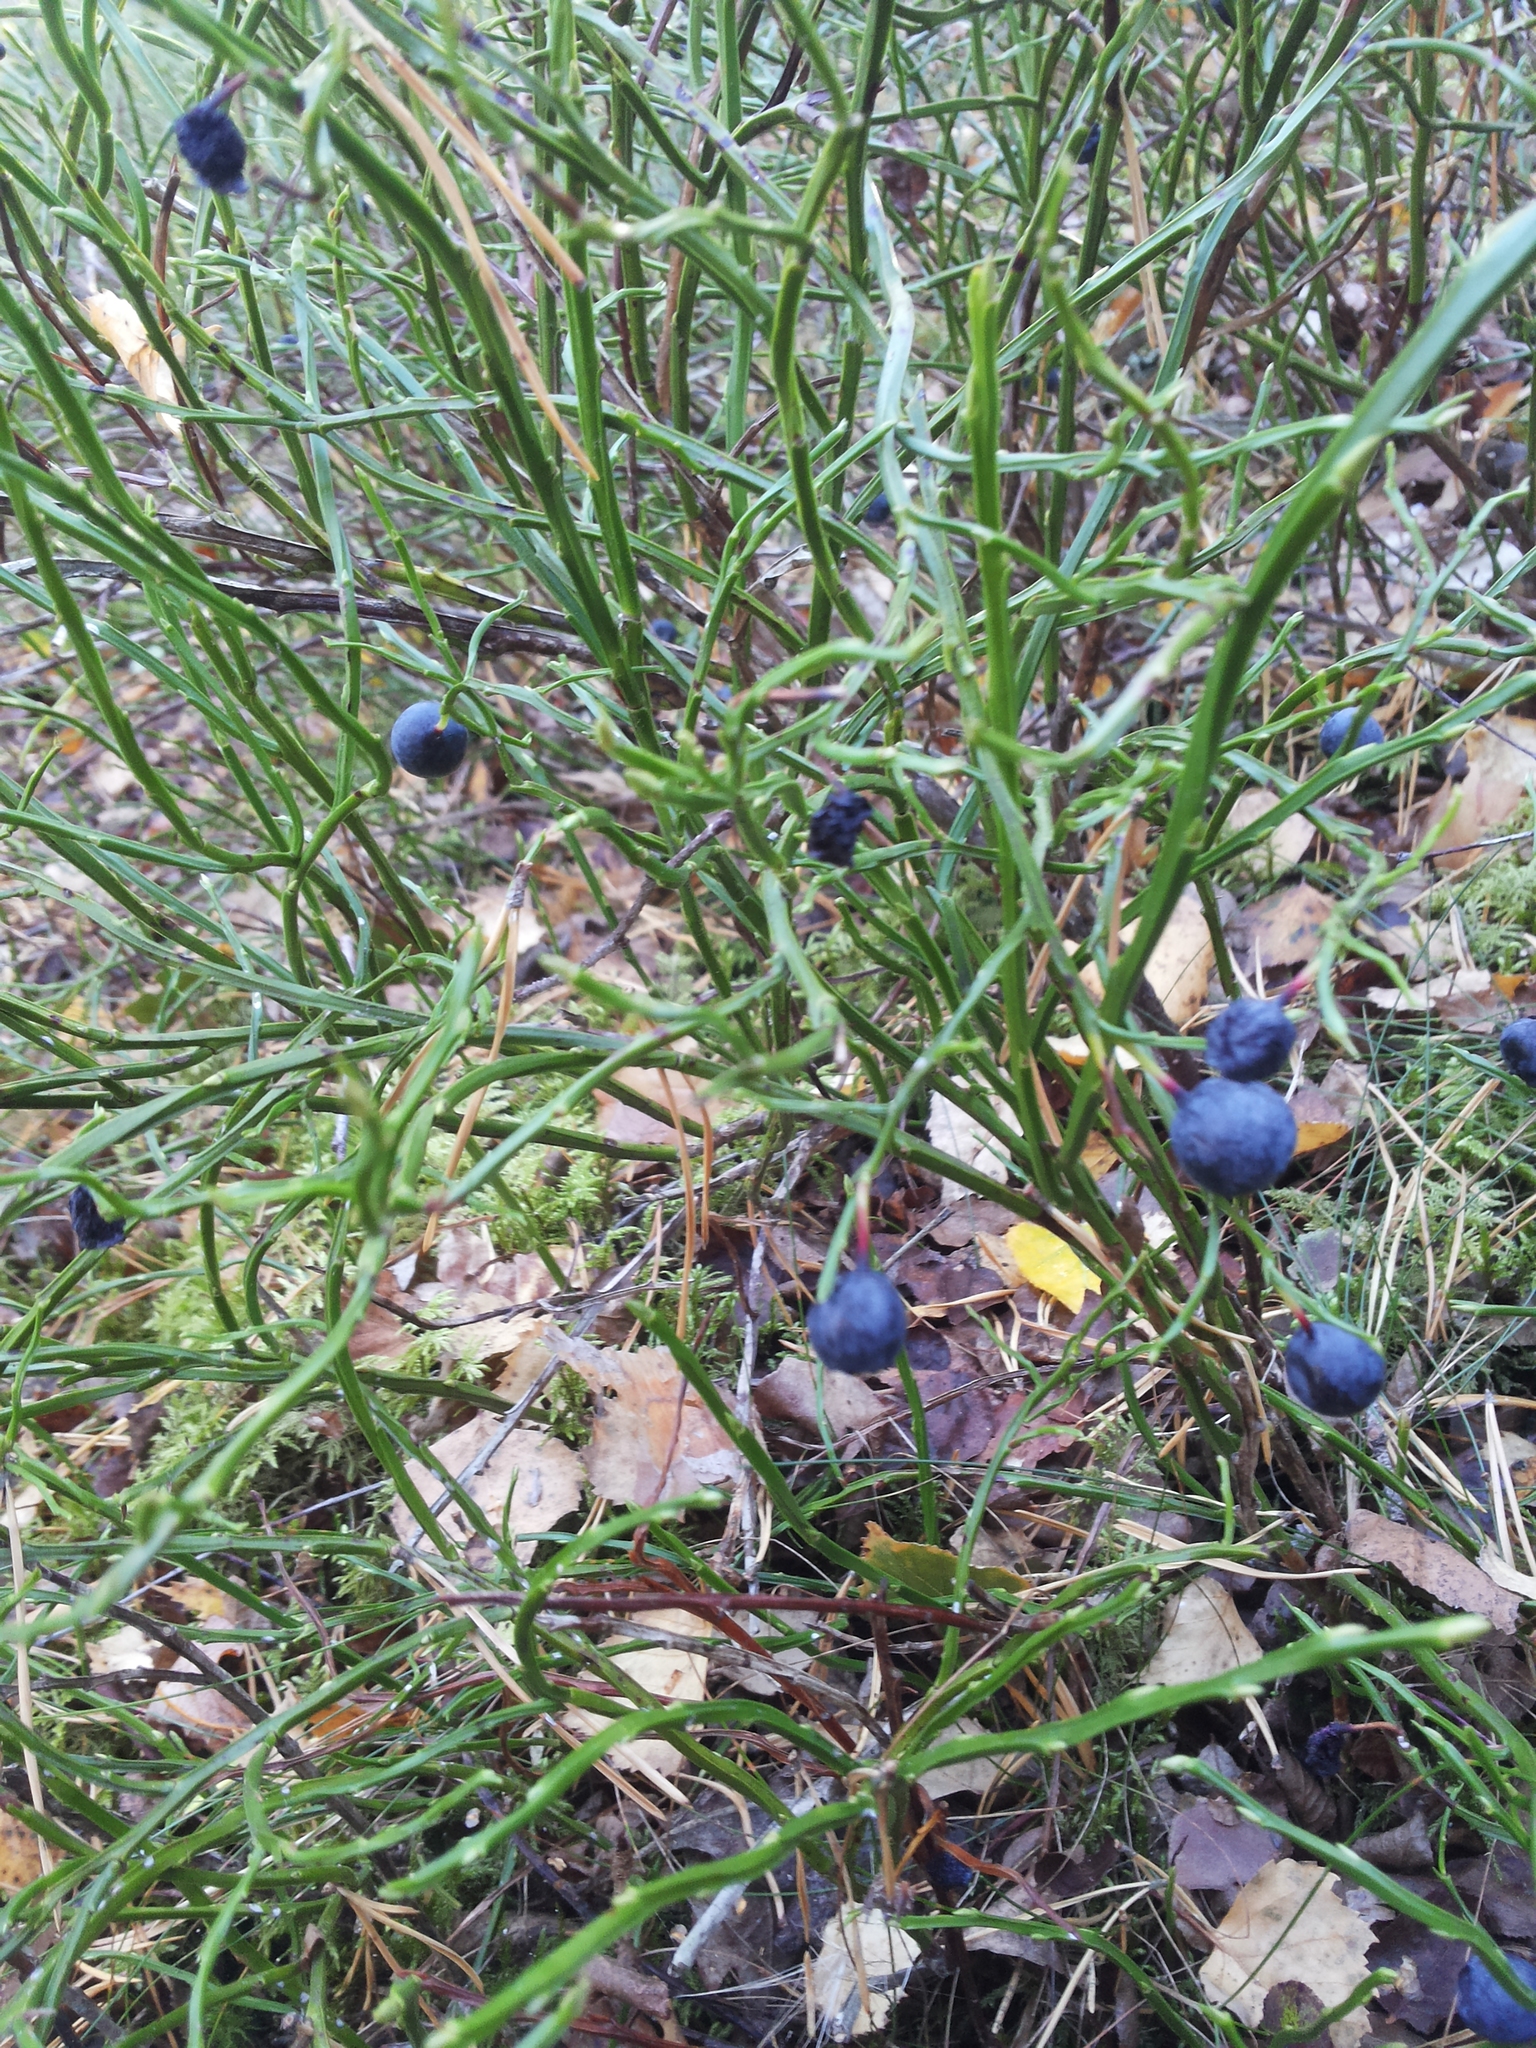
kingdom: Plantae
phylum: Tracheophyta
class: Magnoliopsida
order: Ericales
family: Ericaceae
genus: Vaccinium
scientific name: Vaccinium myrtillus
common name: Bilberry
